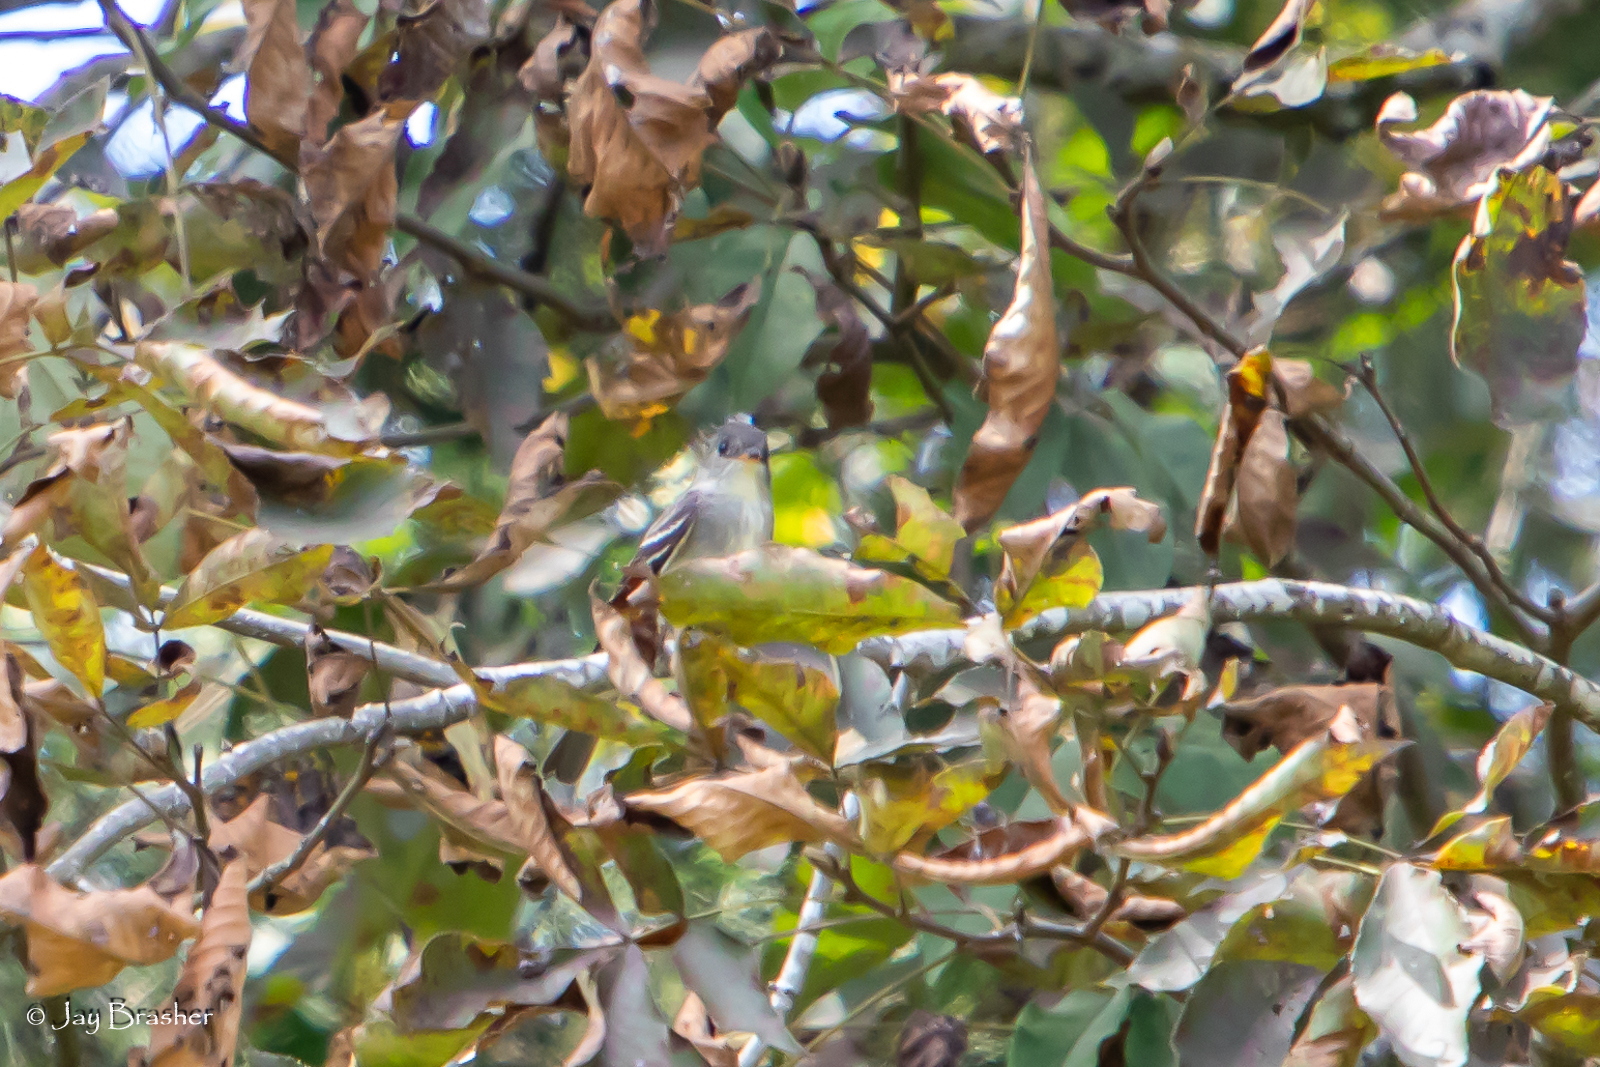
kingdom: Animalia
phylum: Chordata
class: Aves
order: Passeriformes
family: Tyrannidae
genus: Contopus
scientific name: Contopus virens
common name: Eastern wood-pewee
